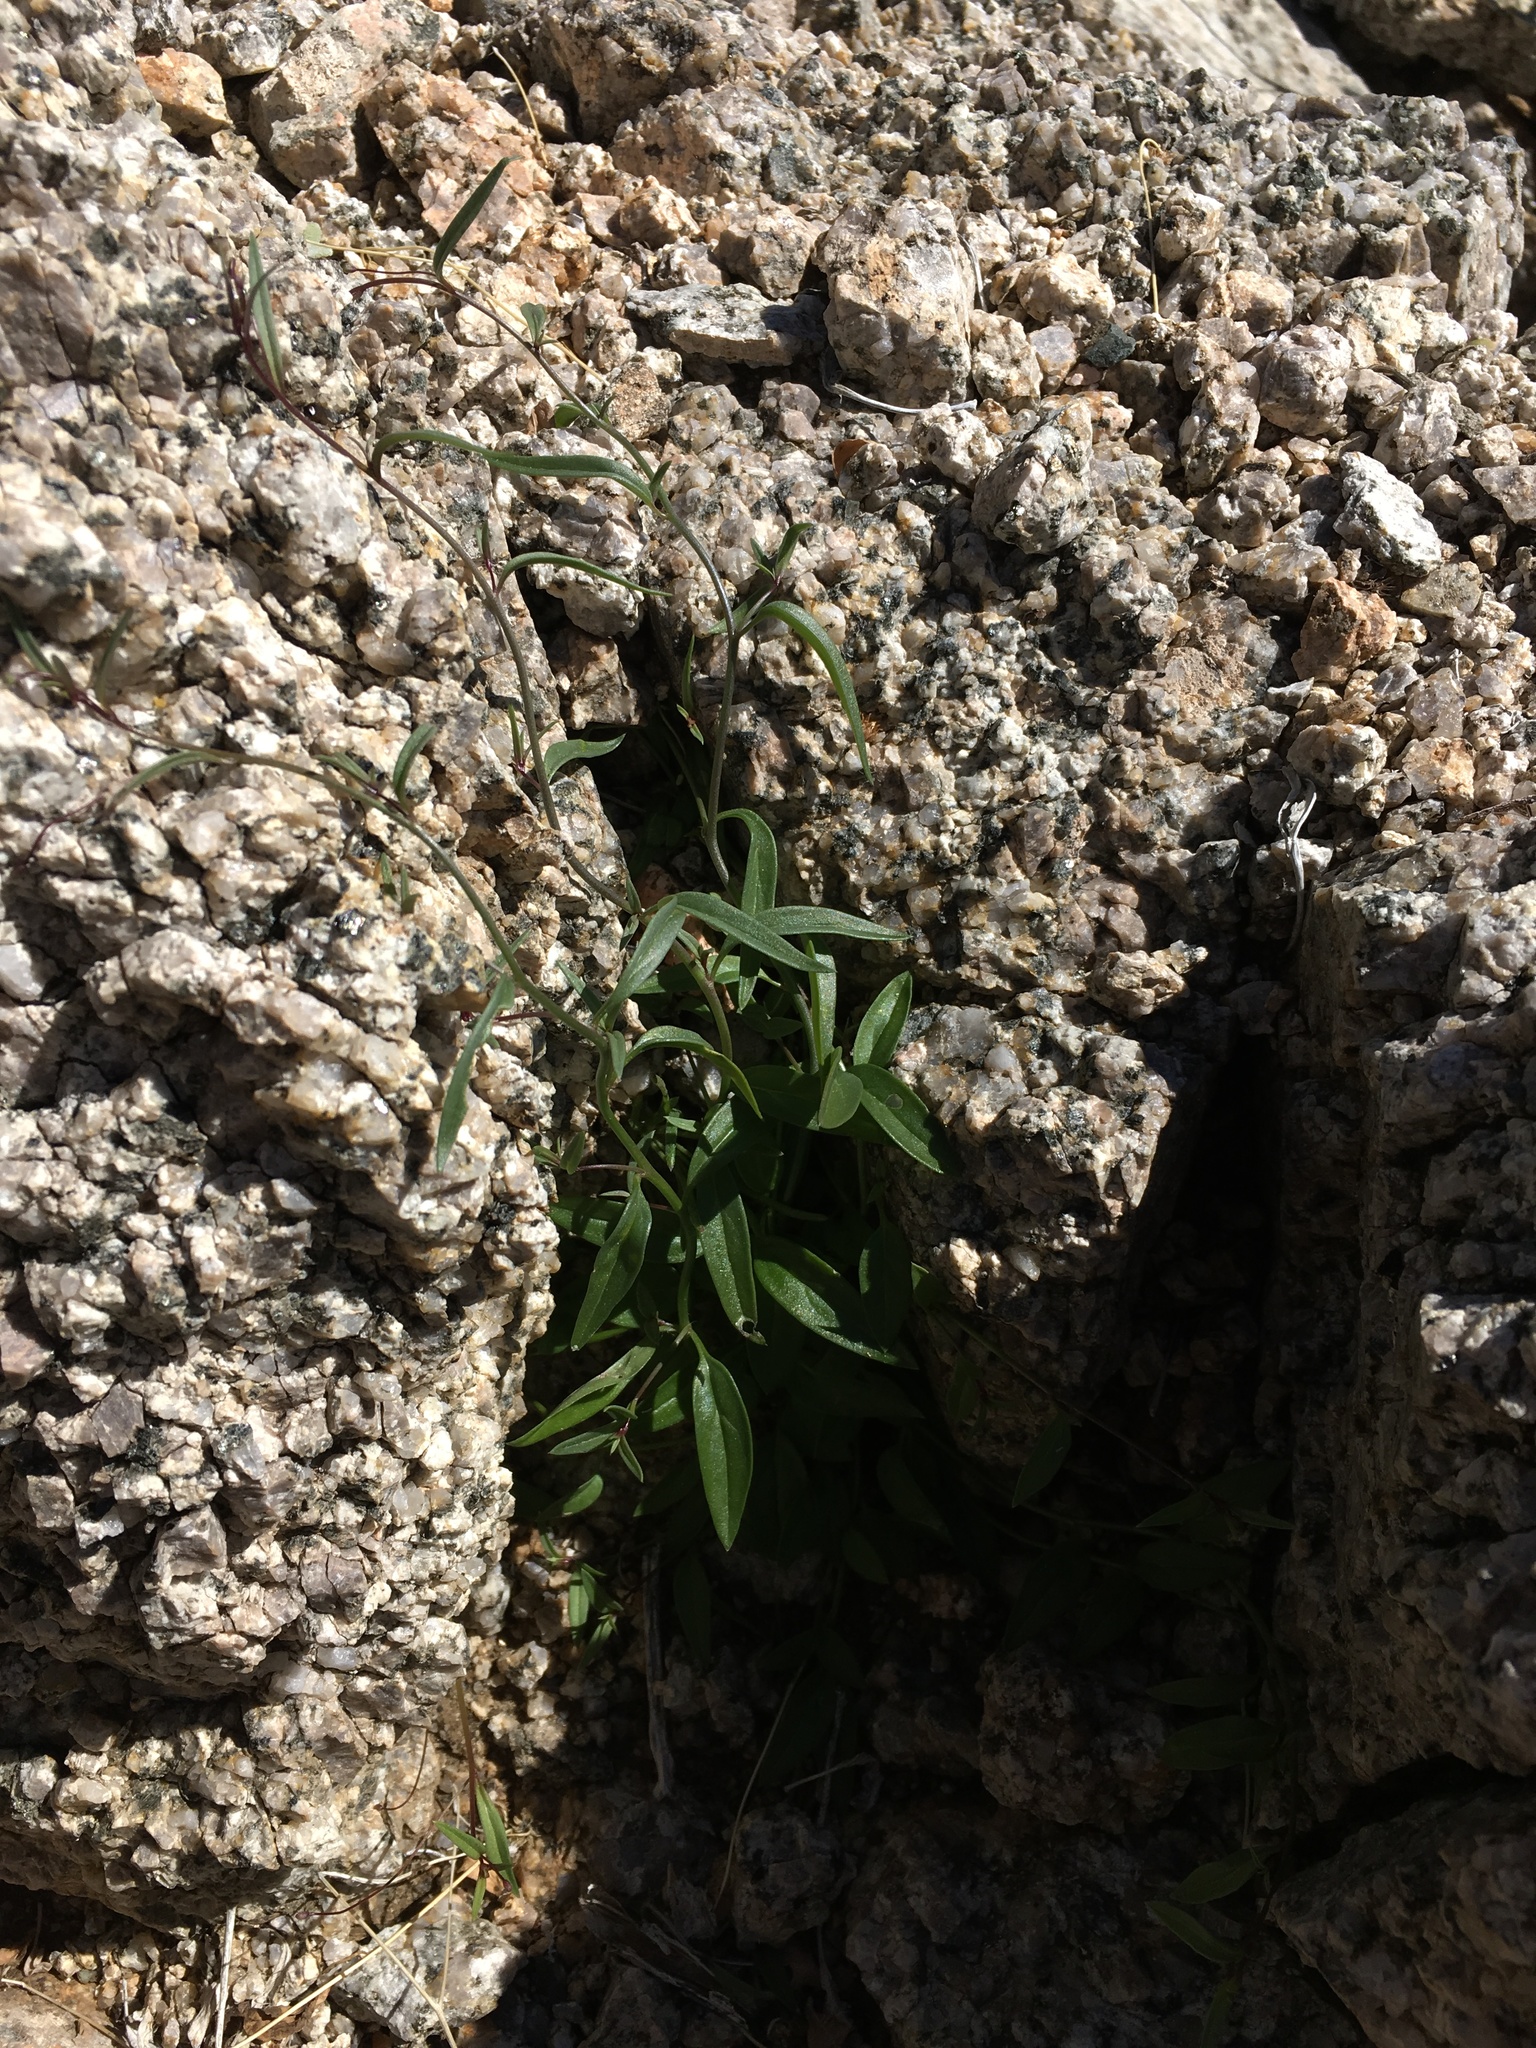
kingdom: Plantae
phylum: Tracheophyta
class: Magnoliopsida
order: Lamiales
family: Plantaginaceae
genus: Neogaerrhinum
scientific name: Neogaerrhinum filipes
